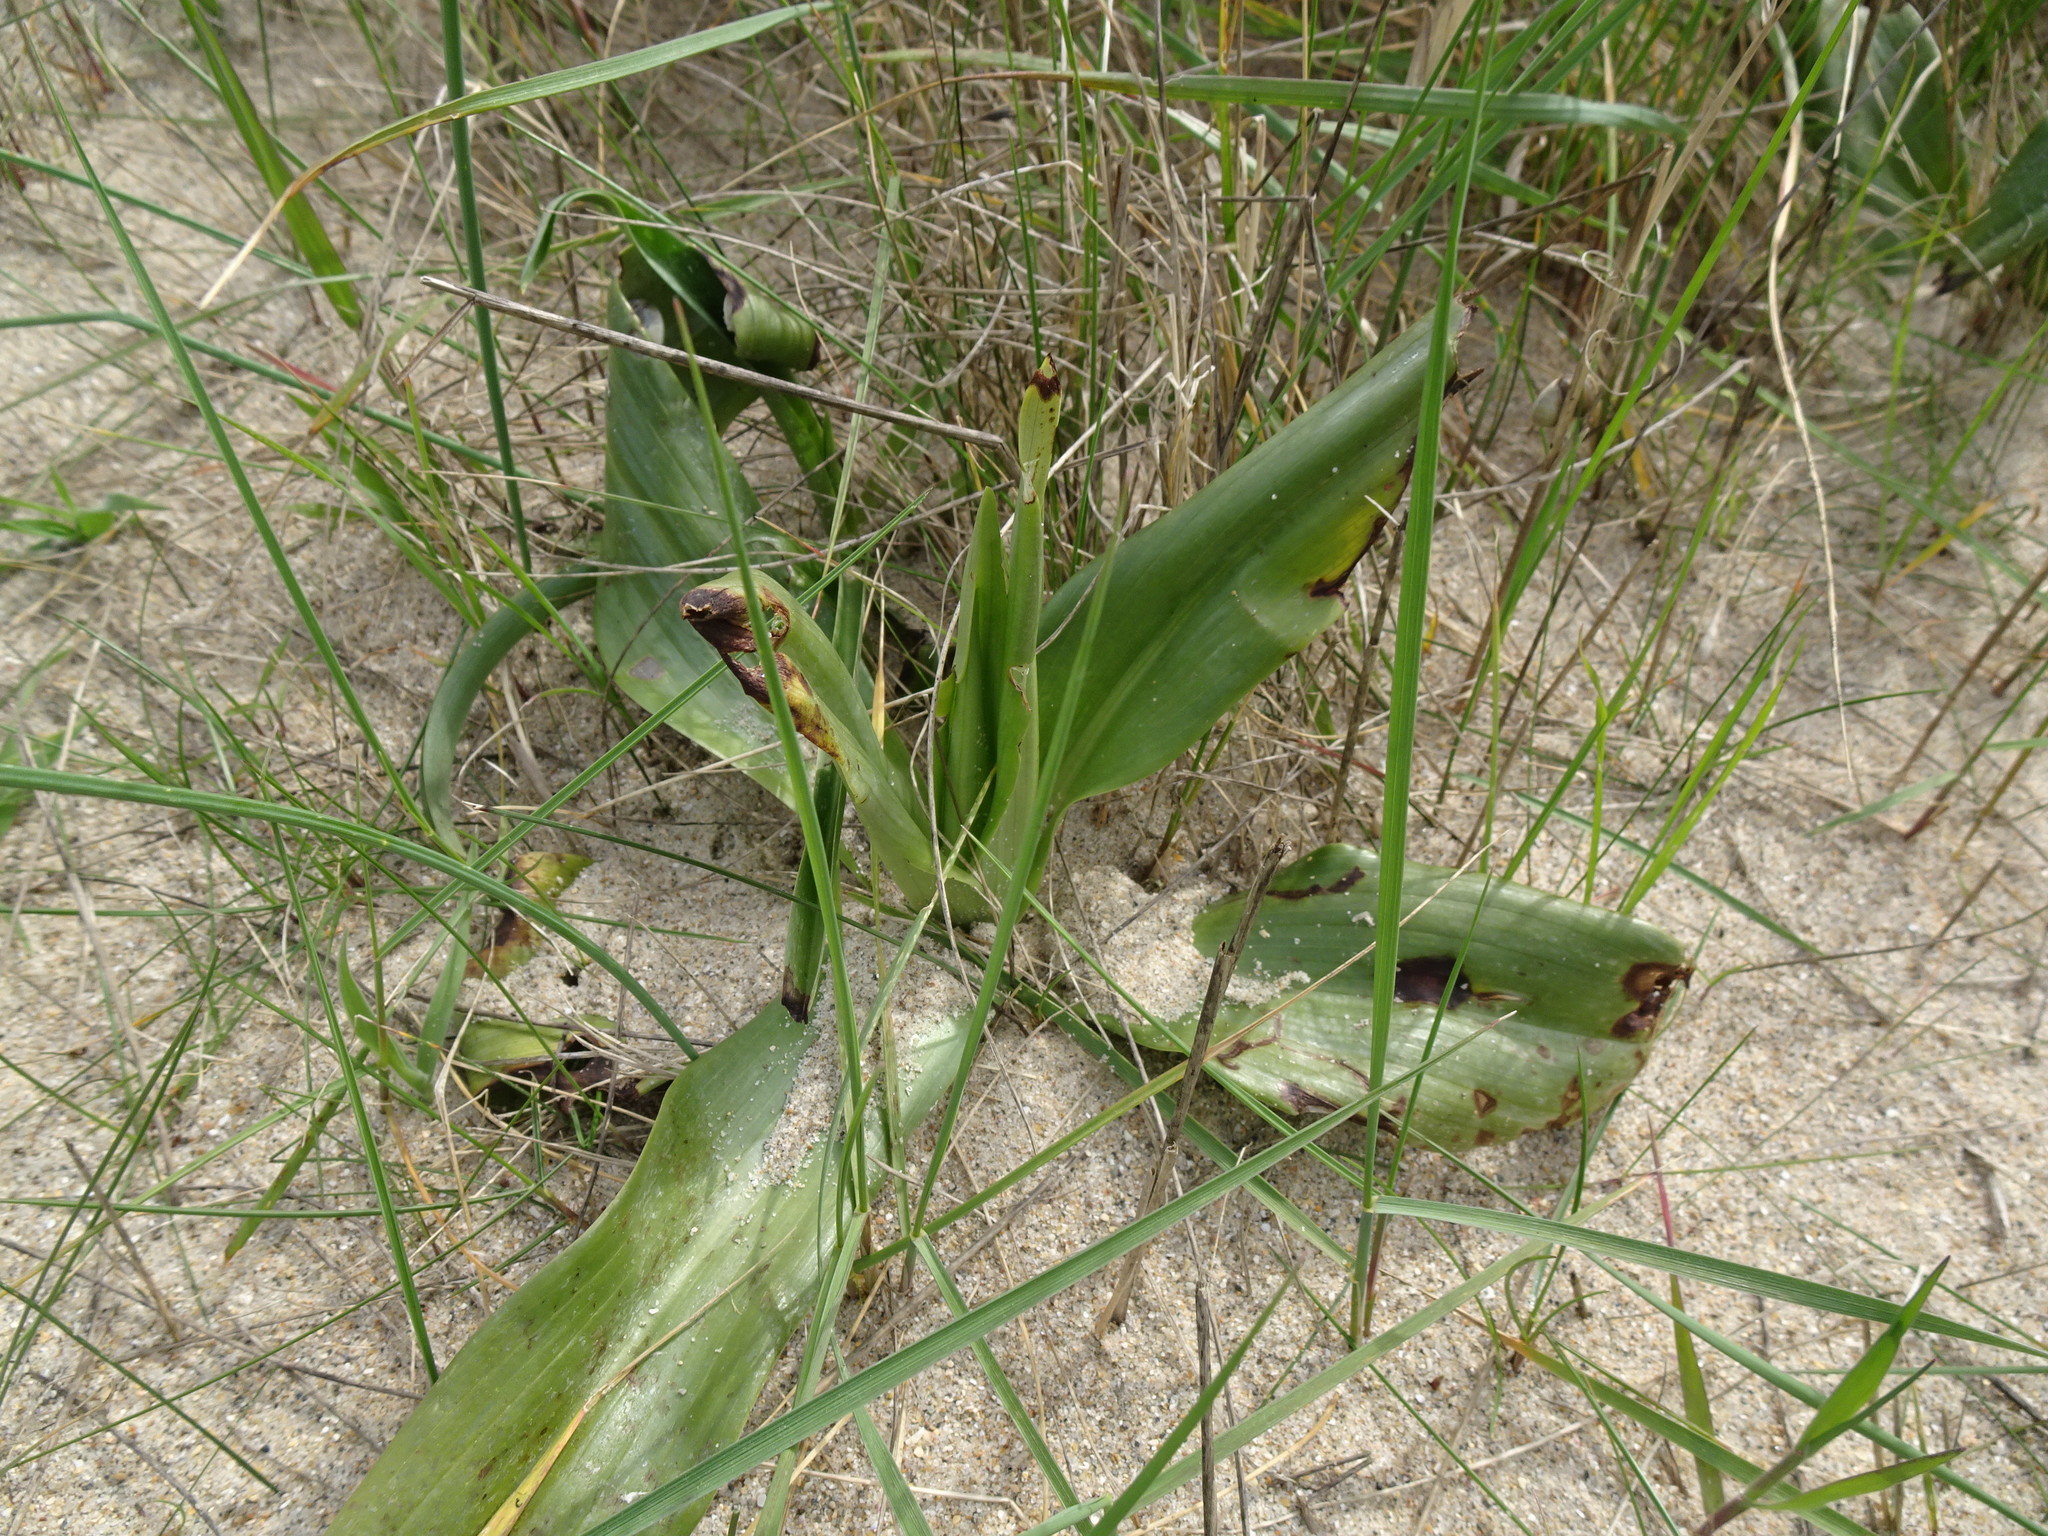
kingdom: Plantae
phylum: Tracheophyta
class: Liliopsida
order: Asparagales
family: Orchidaceae
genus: Himantoglossum
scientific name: Himantoglossum hircinum
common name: Lizard orchid
